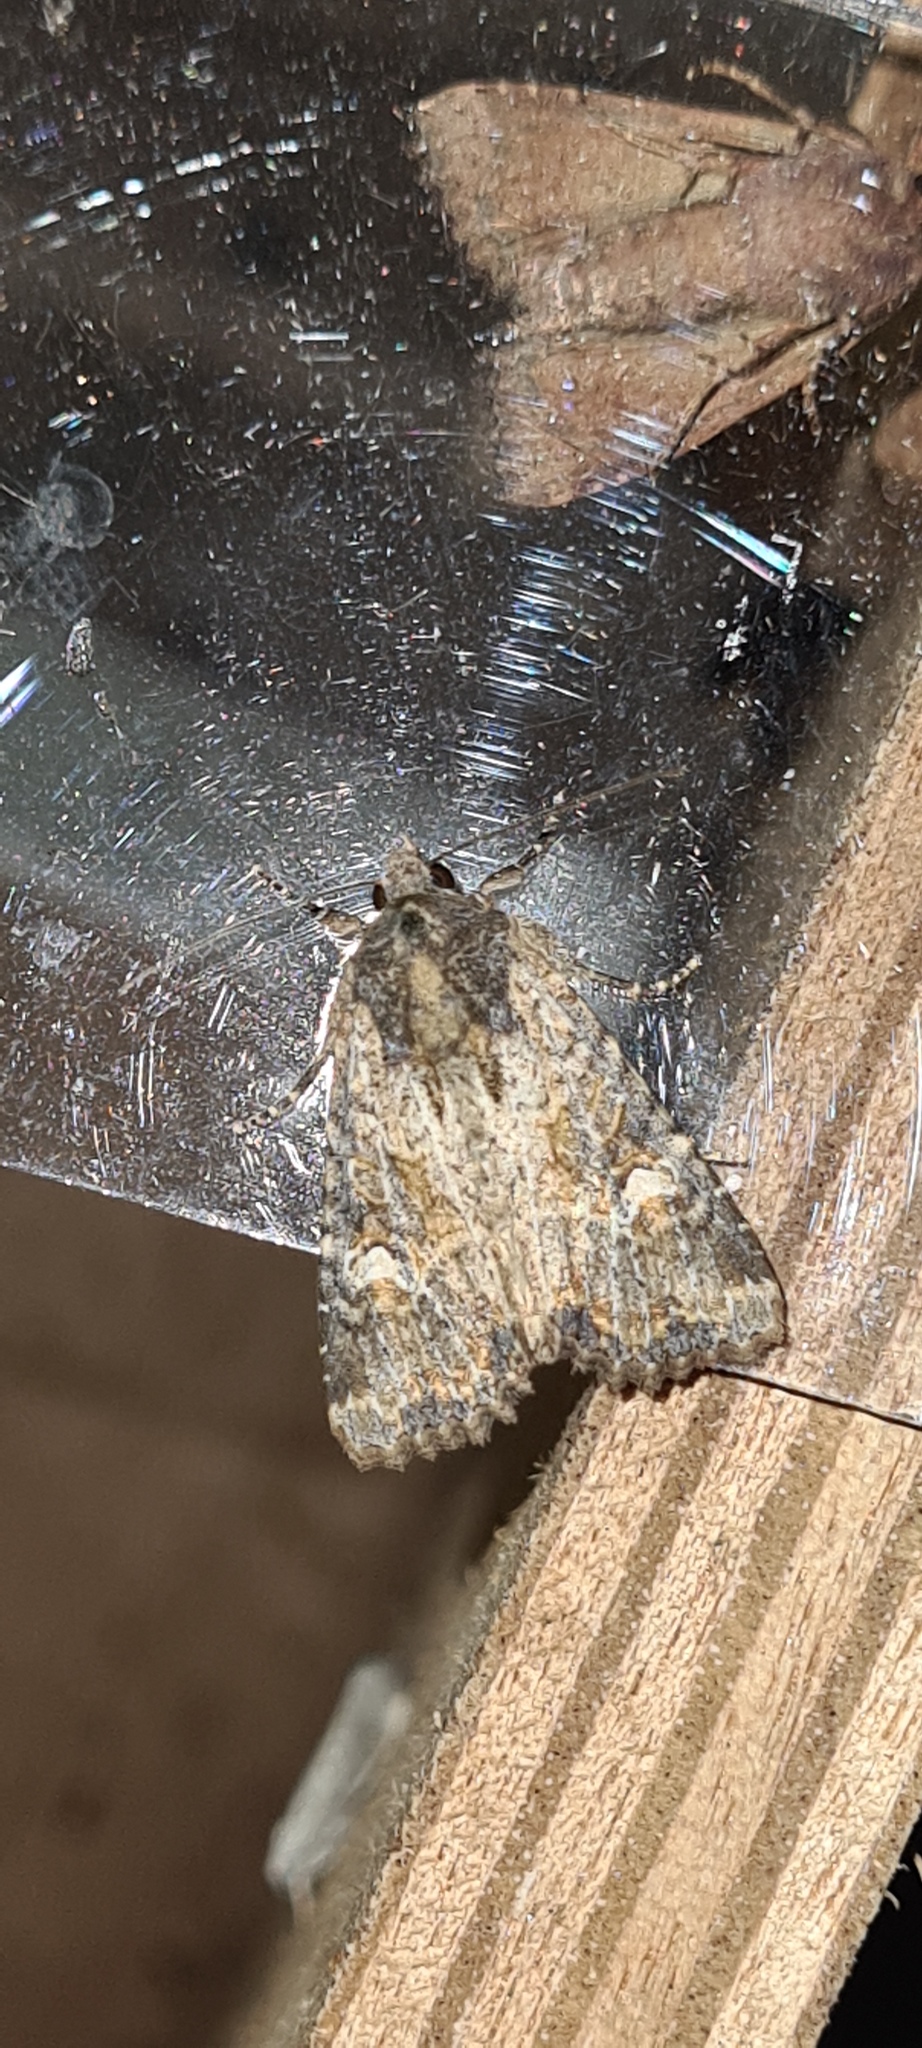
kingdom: Animalia
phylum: Arthropoda
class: Insecta
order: Lepidoptera
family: Noctuidae
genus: Mesapamea
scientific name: Mesapamea
